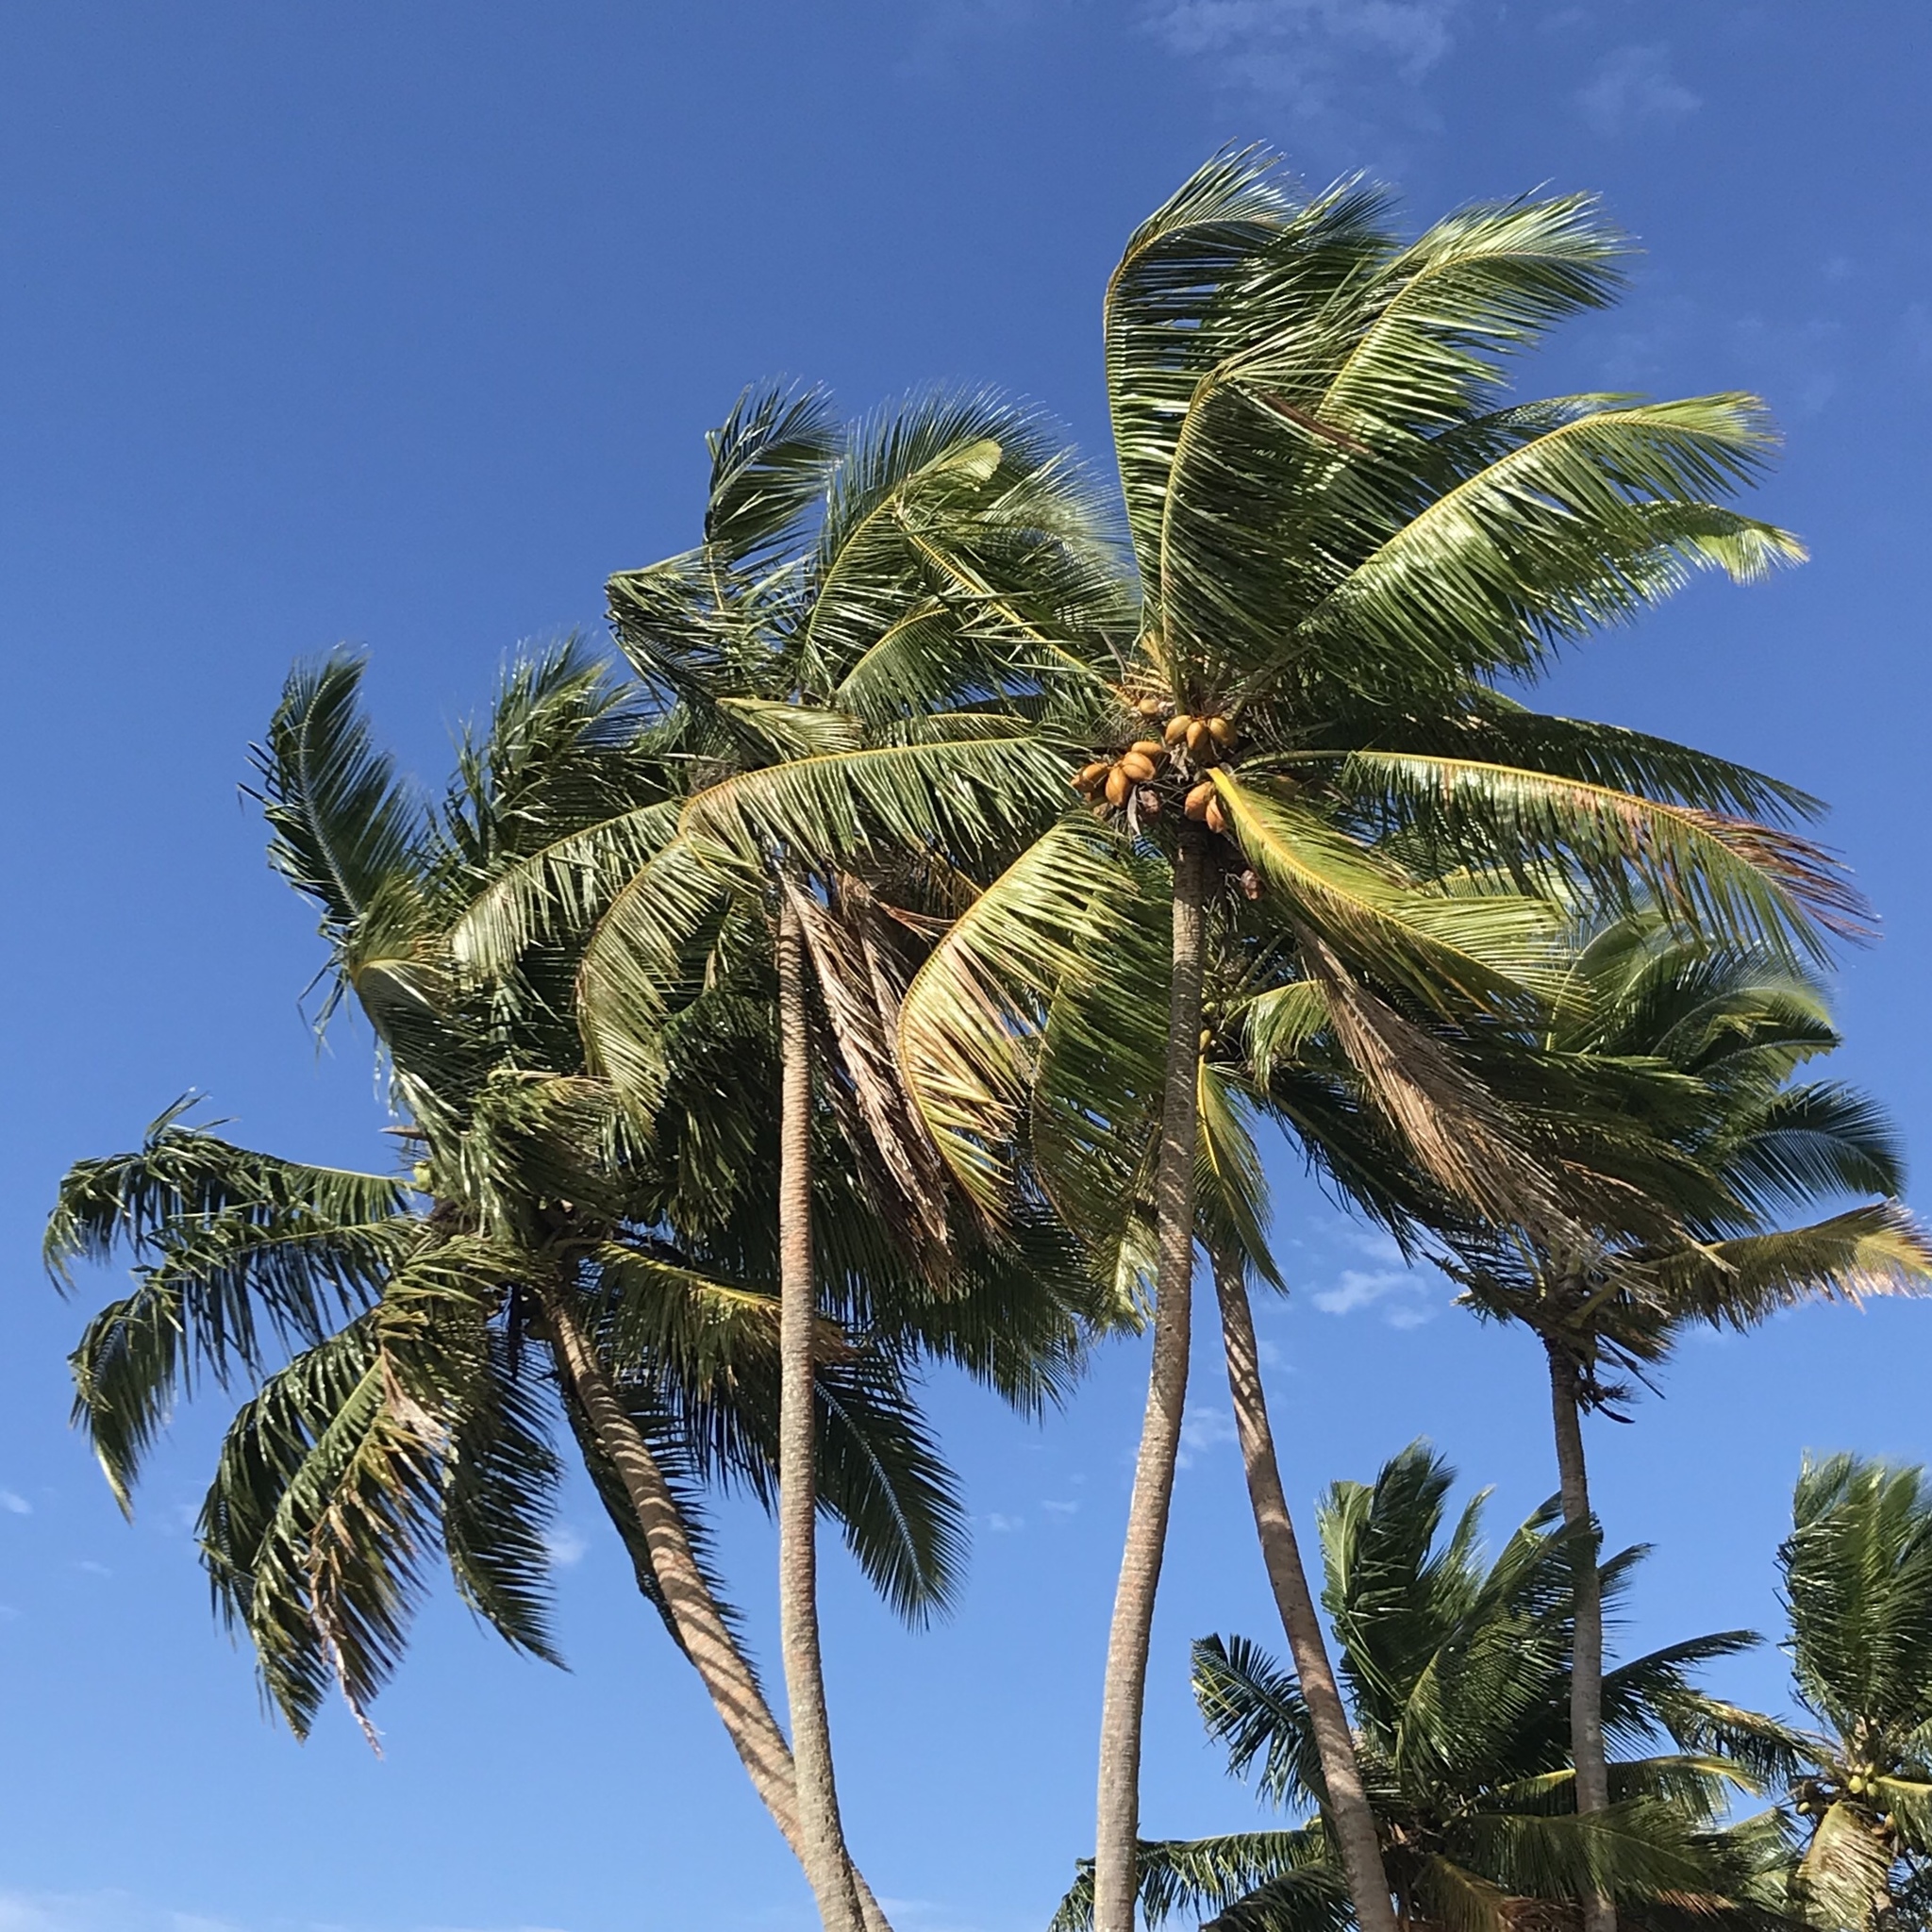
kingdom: Plantae
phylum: Tracheophyta
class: Liliopsida
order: Arecales
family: Arecaceae
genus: Cocos
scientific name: Cocos nucifera
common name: Coconut palm
